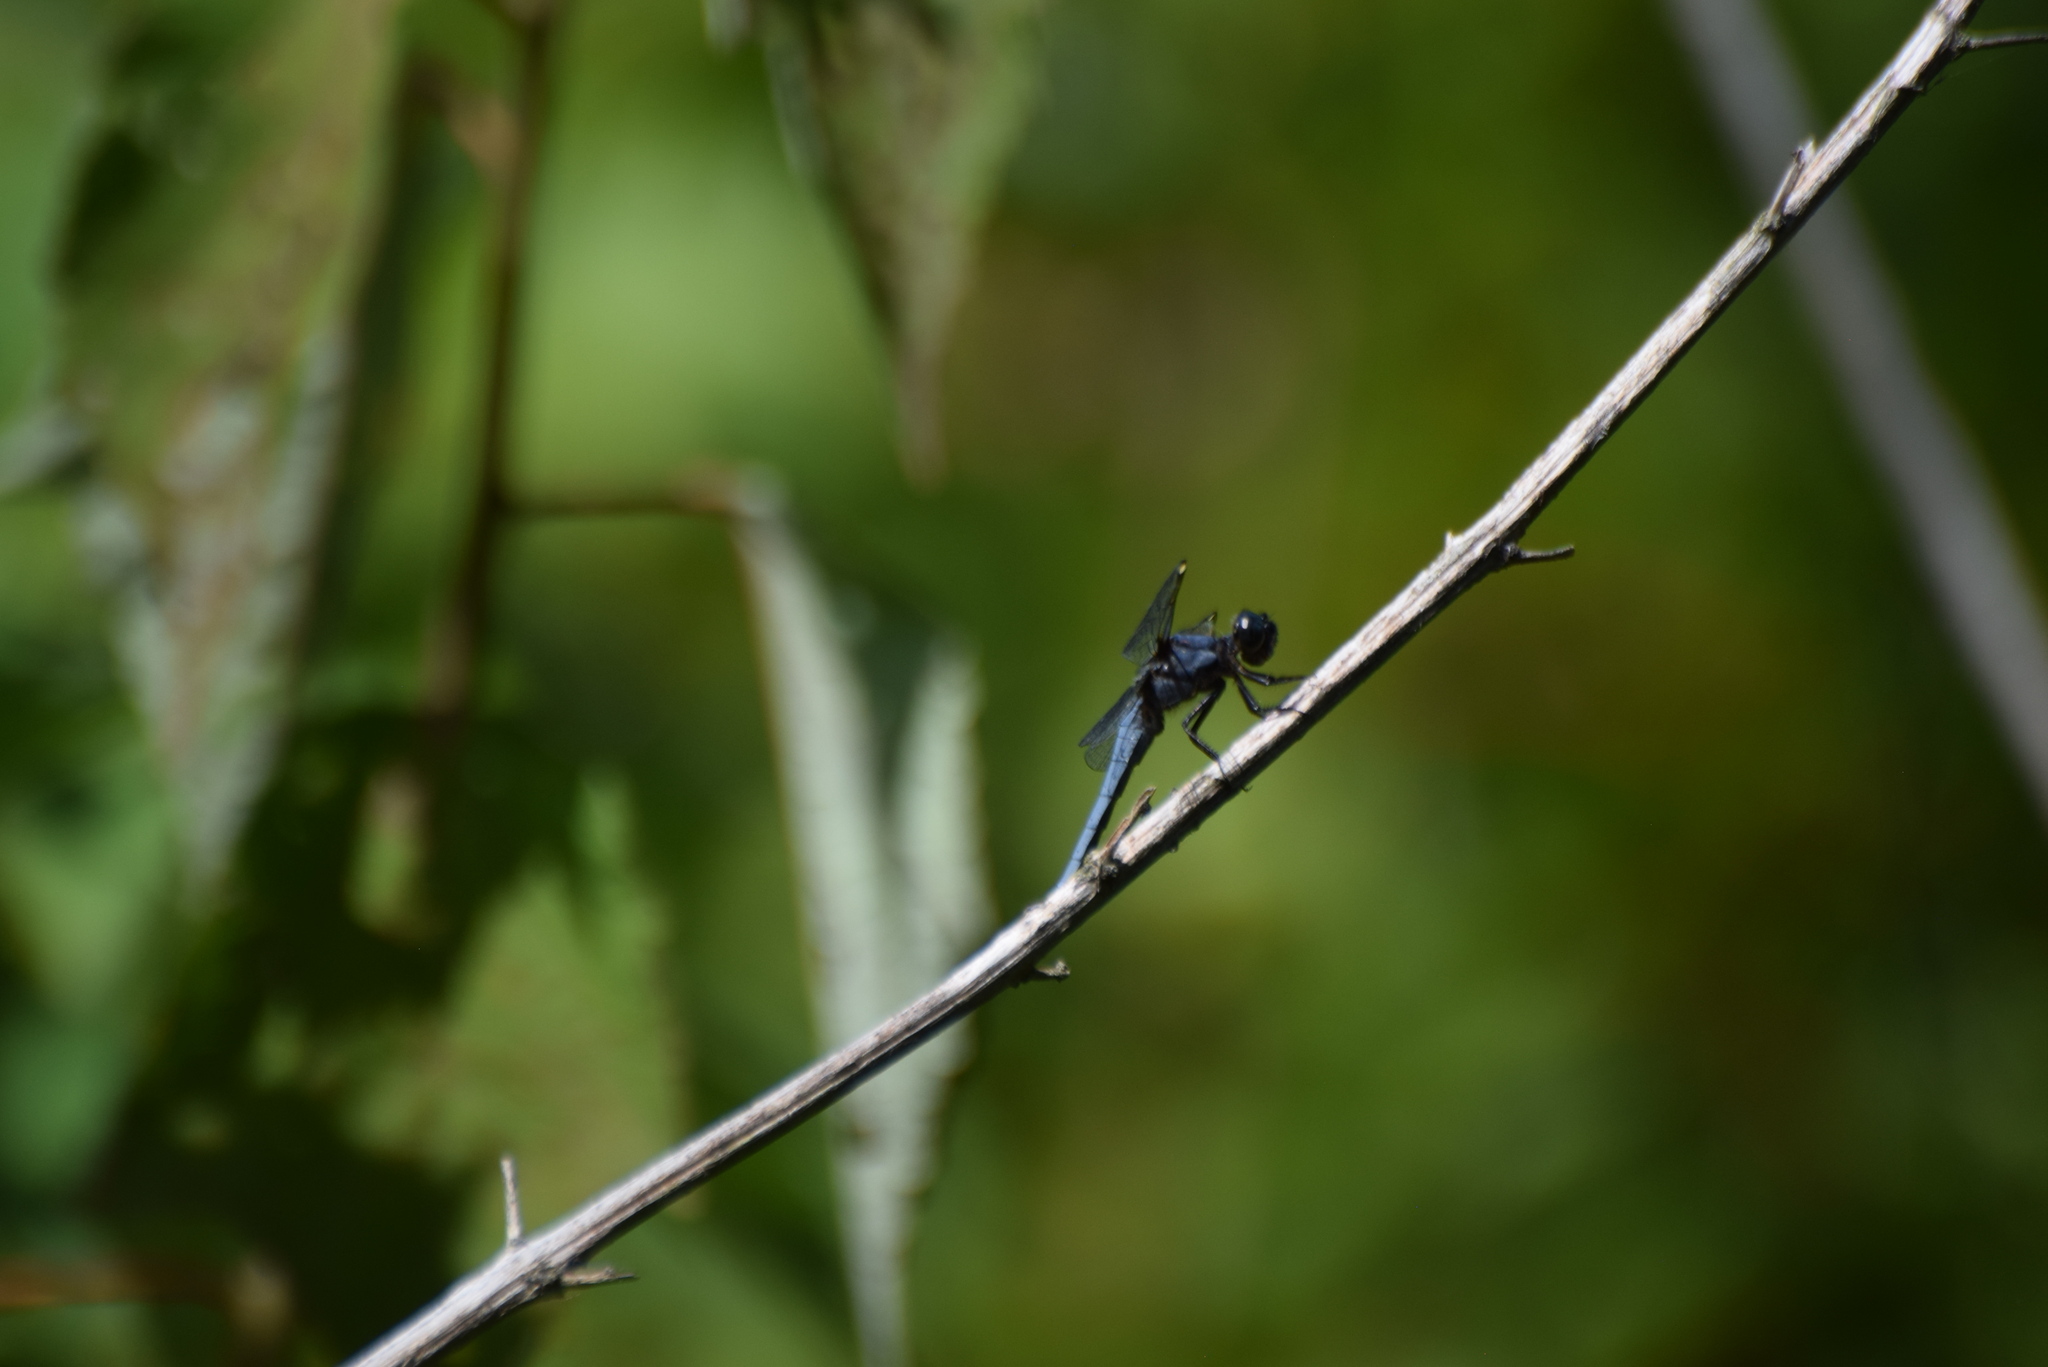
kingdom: Animalia
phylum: Arthropoda
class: Insecta
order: Odonata
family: Libellulidae
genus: Libellula
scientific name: Libellula cyanea
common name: Spangled skimmer
